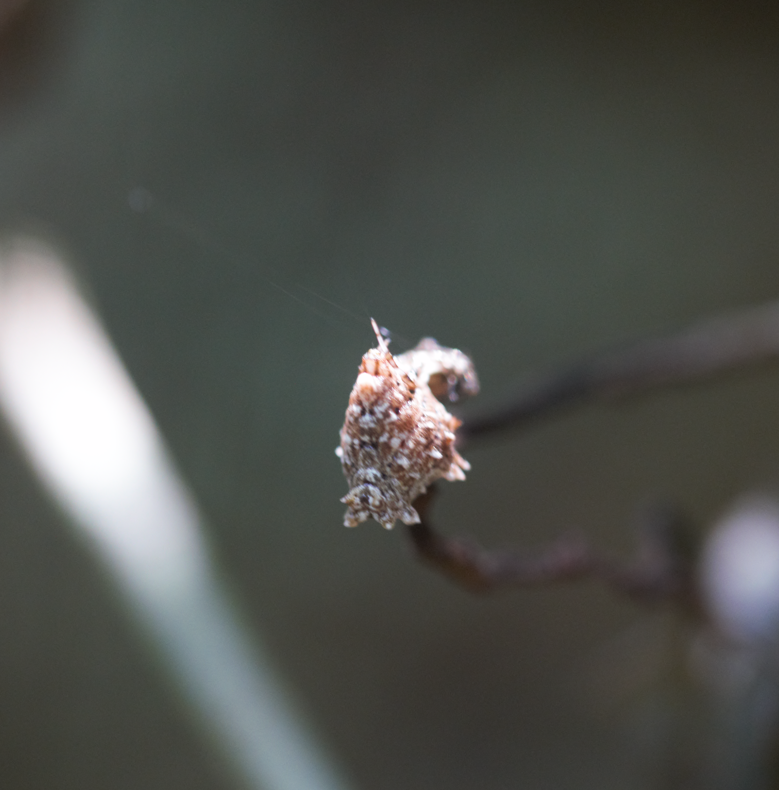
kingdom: Animalia
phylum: Arthropoda
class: Arachnida
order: Araneae
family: Araneidae
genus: Micrathena
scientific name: Micrathena horrida
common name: Orb weavers
